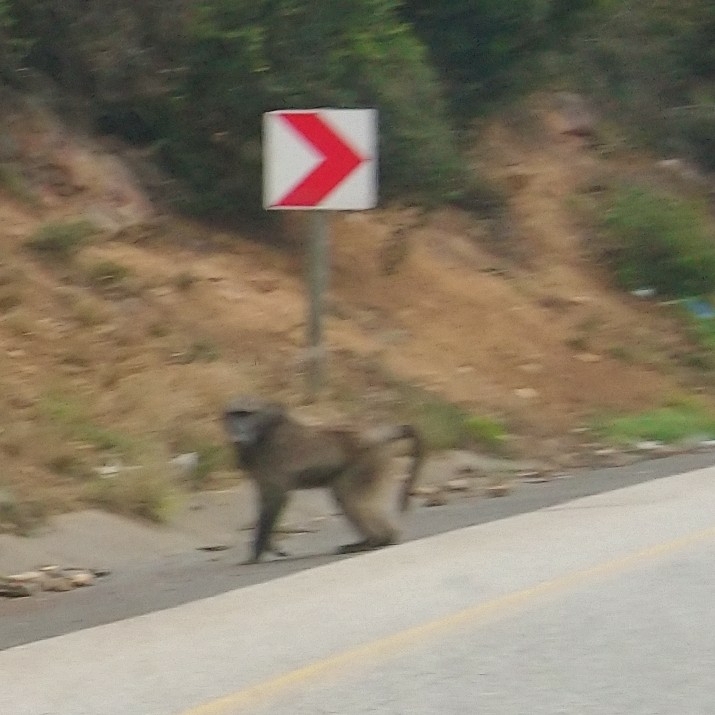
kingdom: Animalia
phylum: Chordata
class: Mammalia
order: Primates
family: Cercopithecidae
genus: Papio
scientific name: Papio ursinus
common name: Chacma baboon
